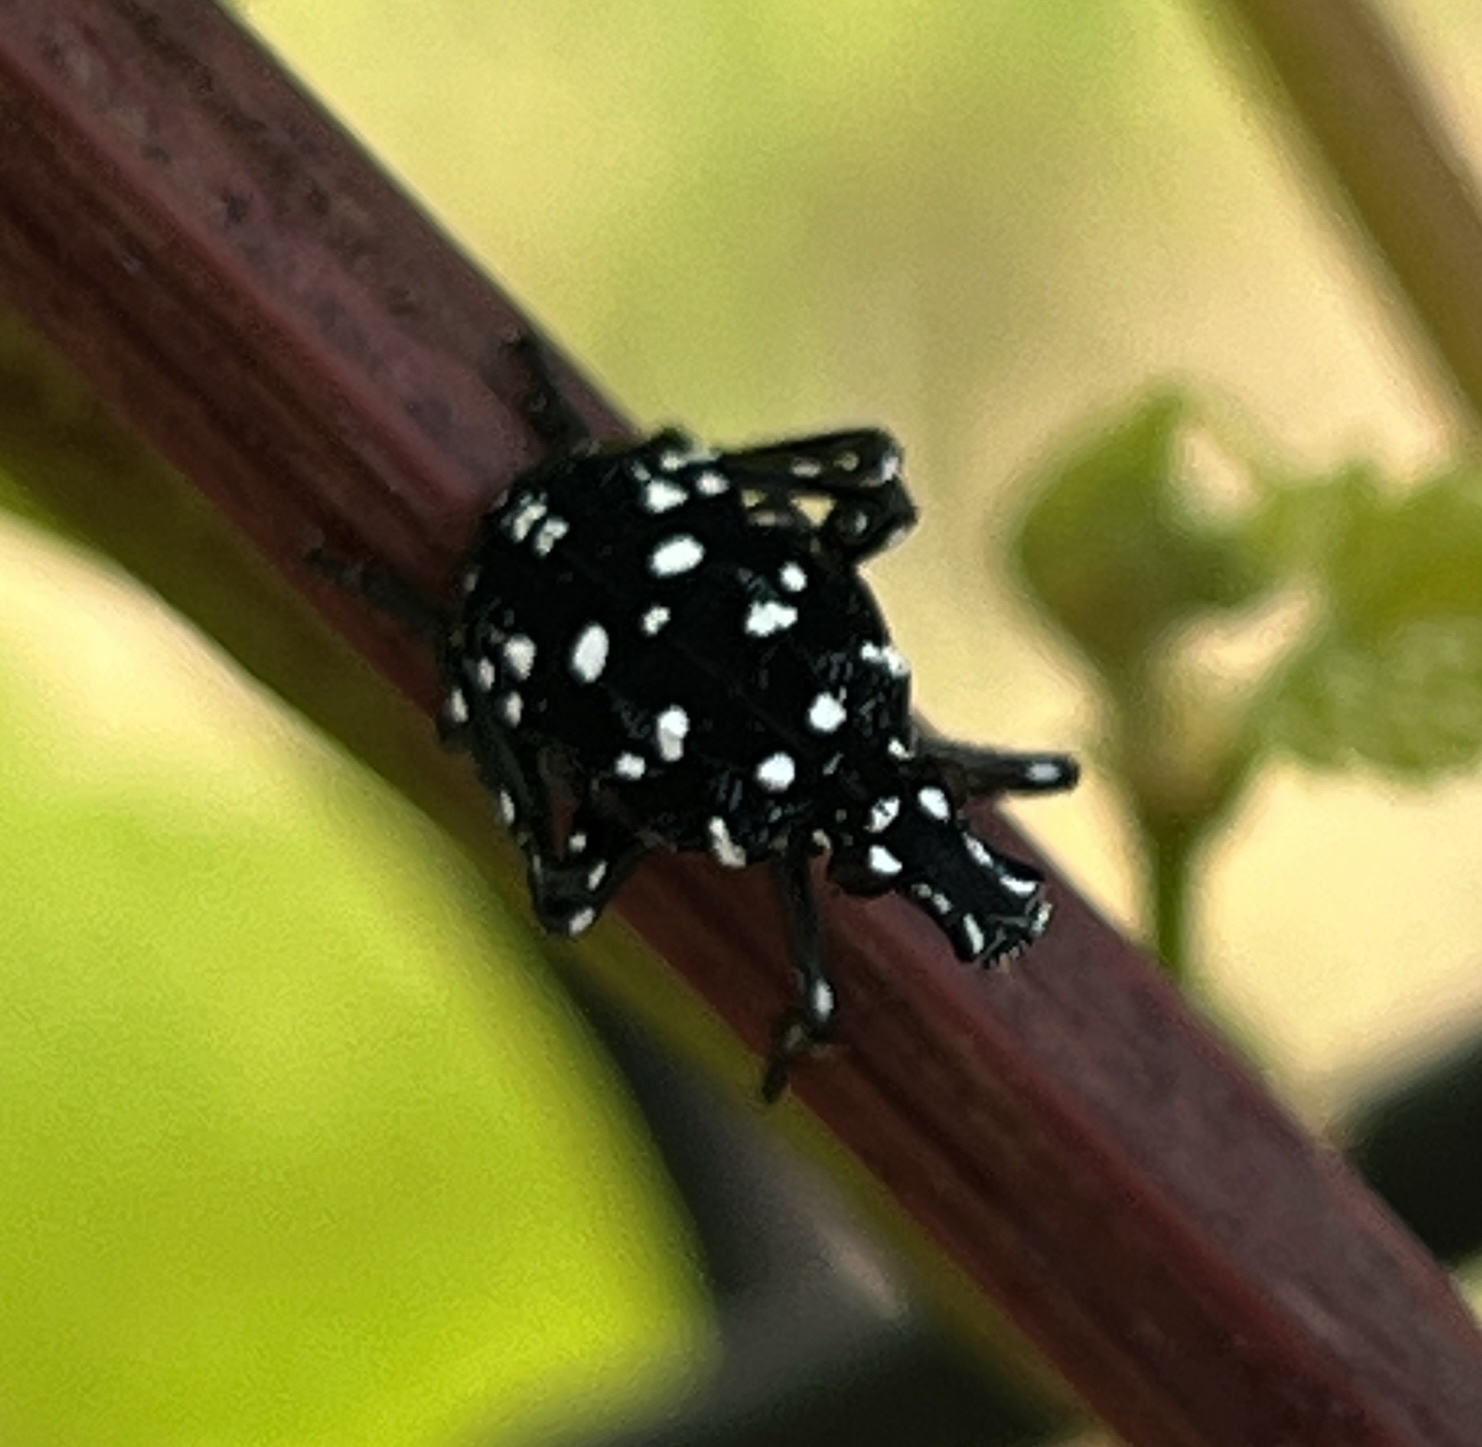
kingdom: Animalia
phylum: Arthropoda
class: Insecta
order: Hemiptera
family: Fulgoridae
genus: Lycorma
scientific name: Lycorma delicatula
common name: Spotted lanternfly
